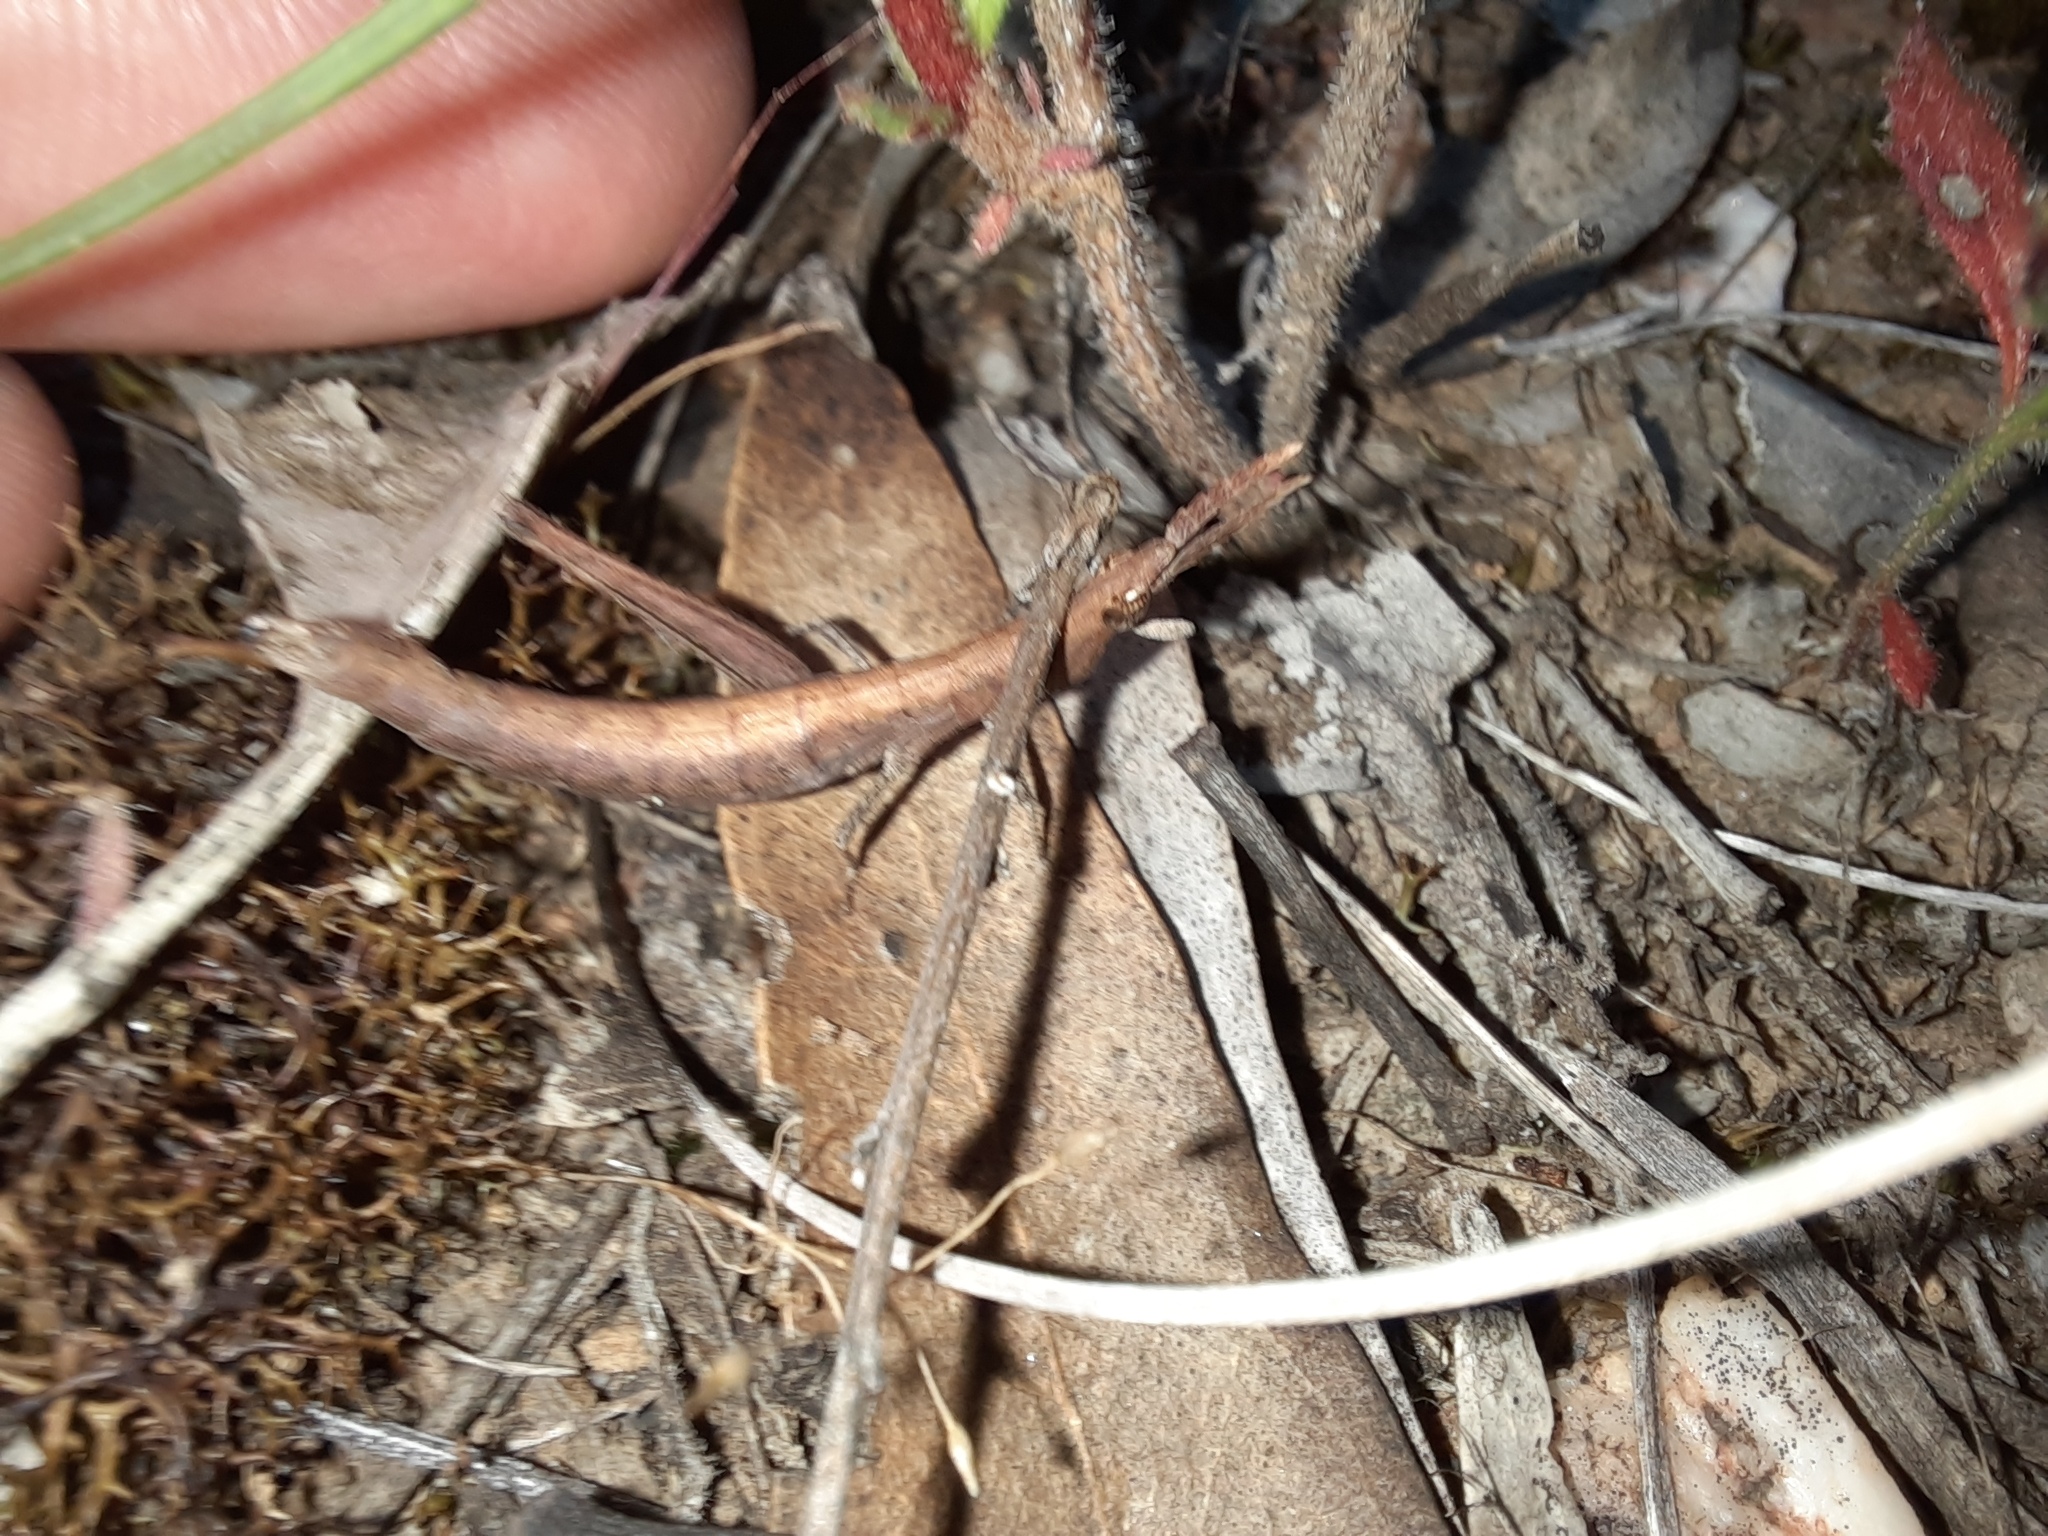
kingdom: Animalia
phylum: Arthropoda
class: Insecta
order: Orthoptera
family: Morabidae
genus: Vandiemenella
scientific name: Vandiemenella viatica
